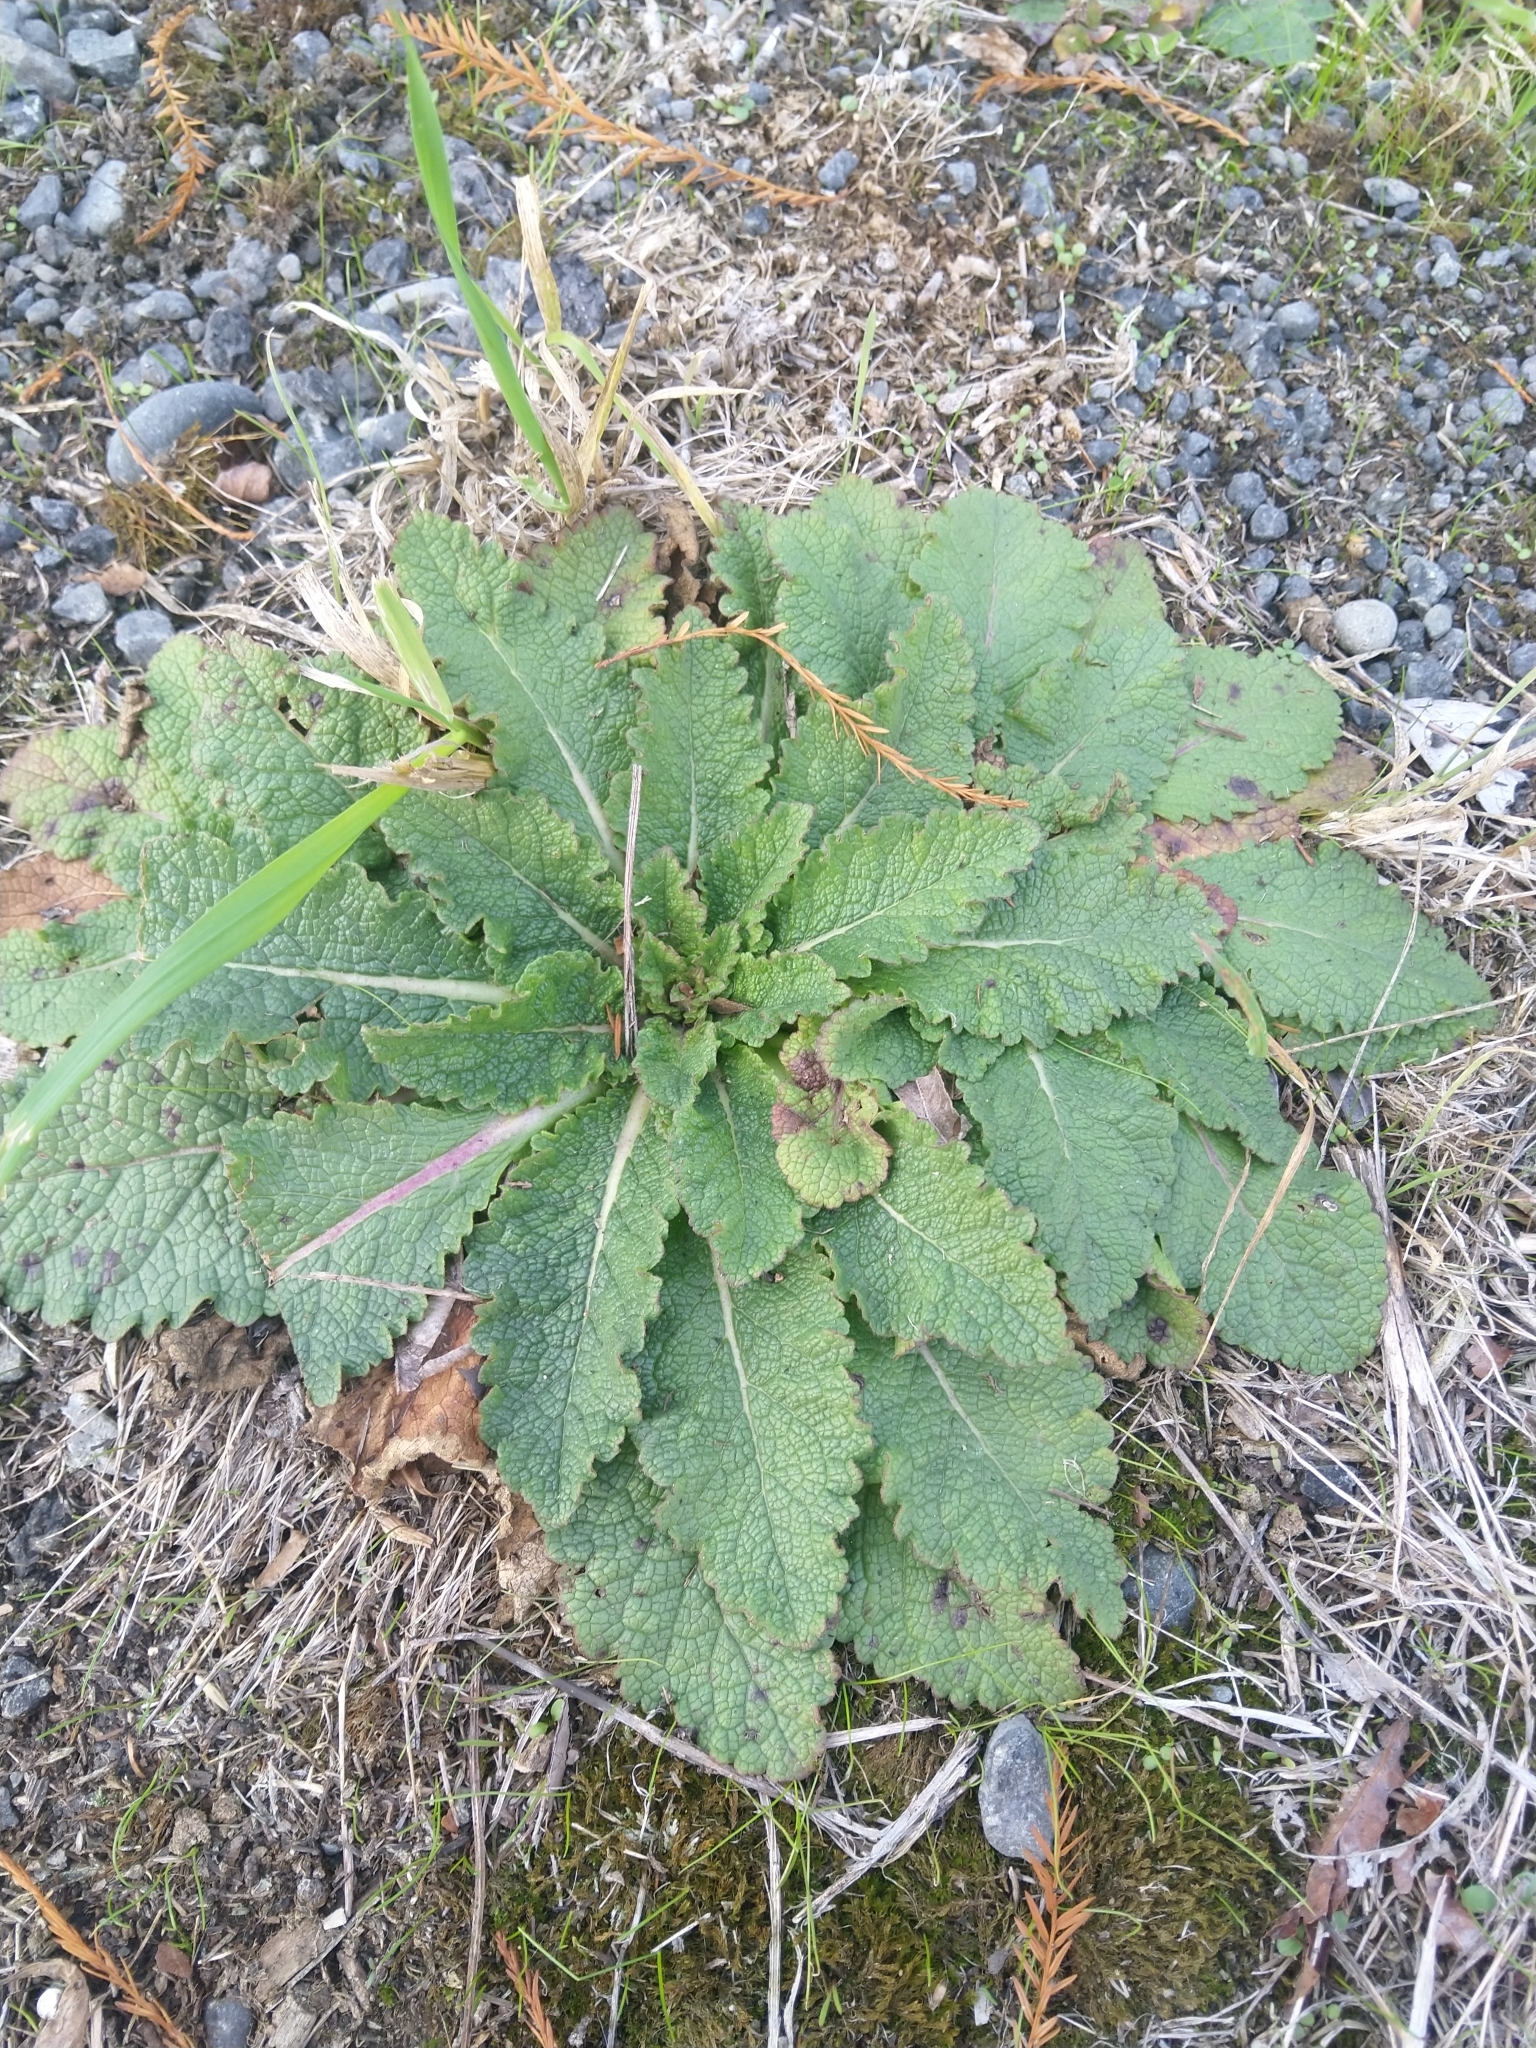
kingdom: Plantae
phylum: Tracheophyta
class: Magnoliopsida
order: Lamiales
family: Scrophulariaceae
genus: Verbascum
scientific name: Verbascum virgatum
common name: Twiggy mullein
